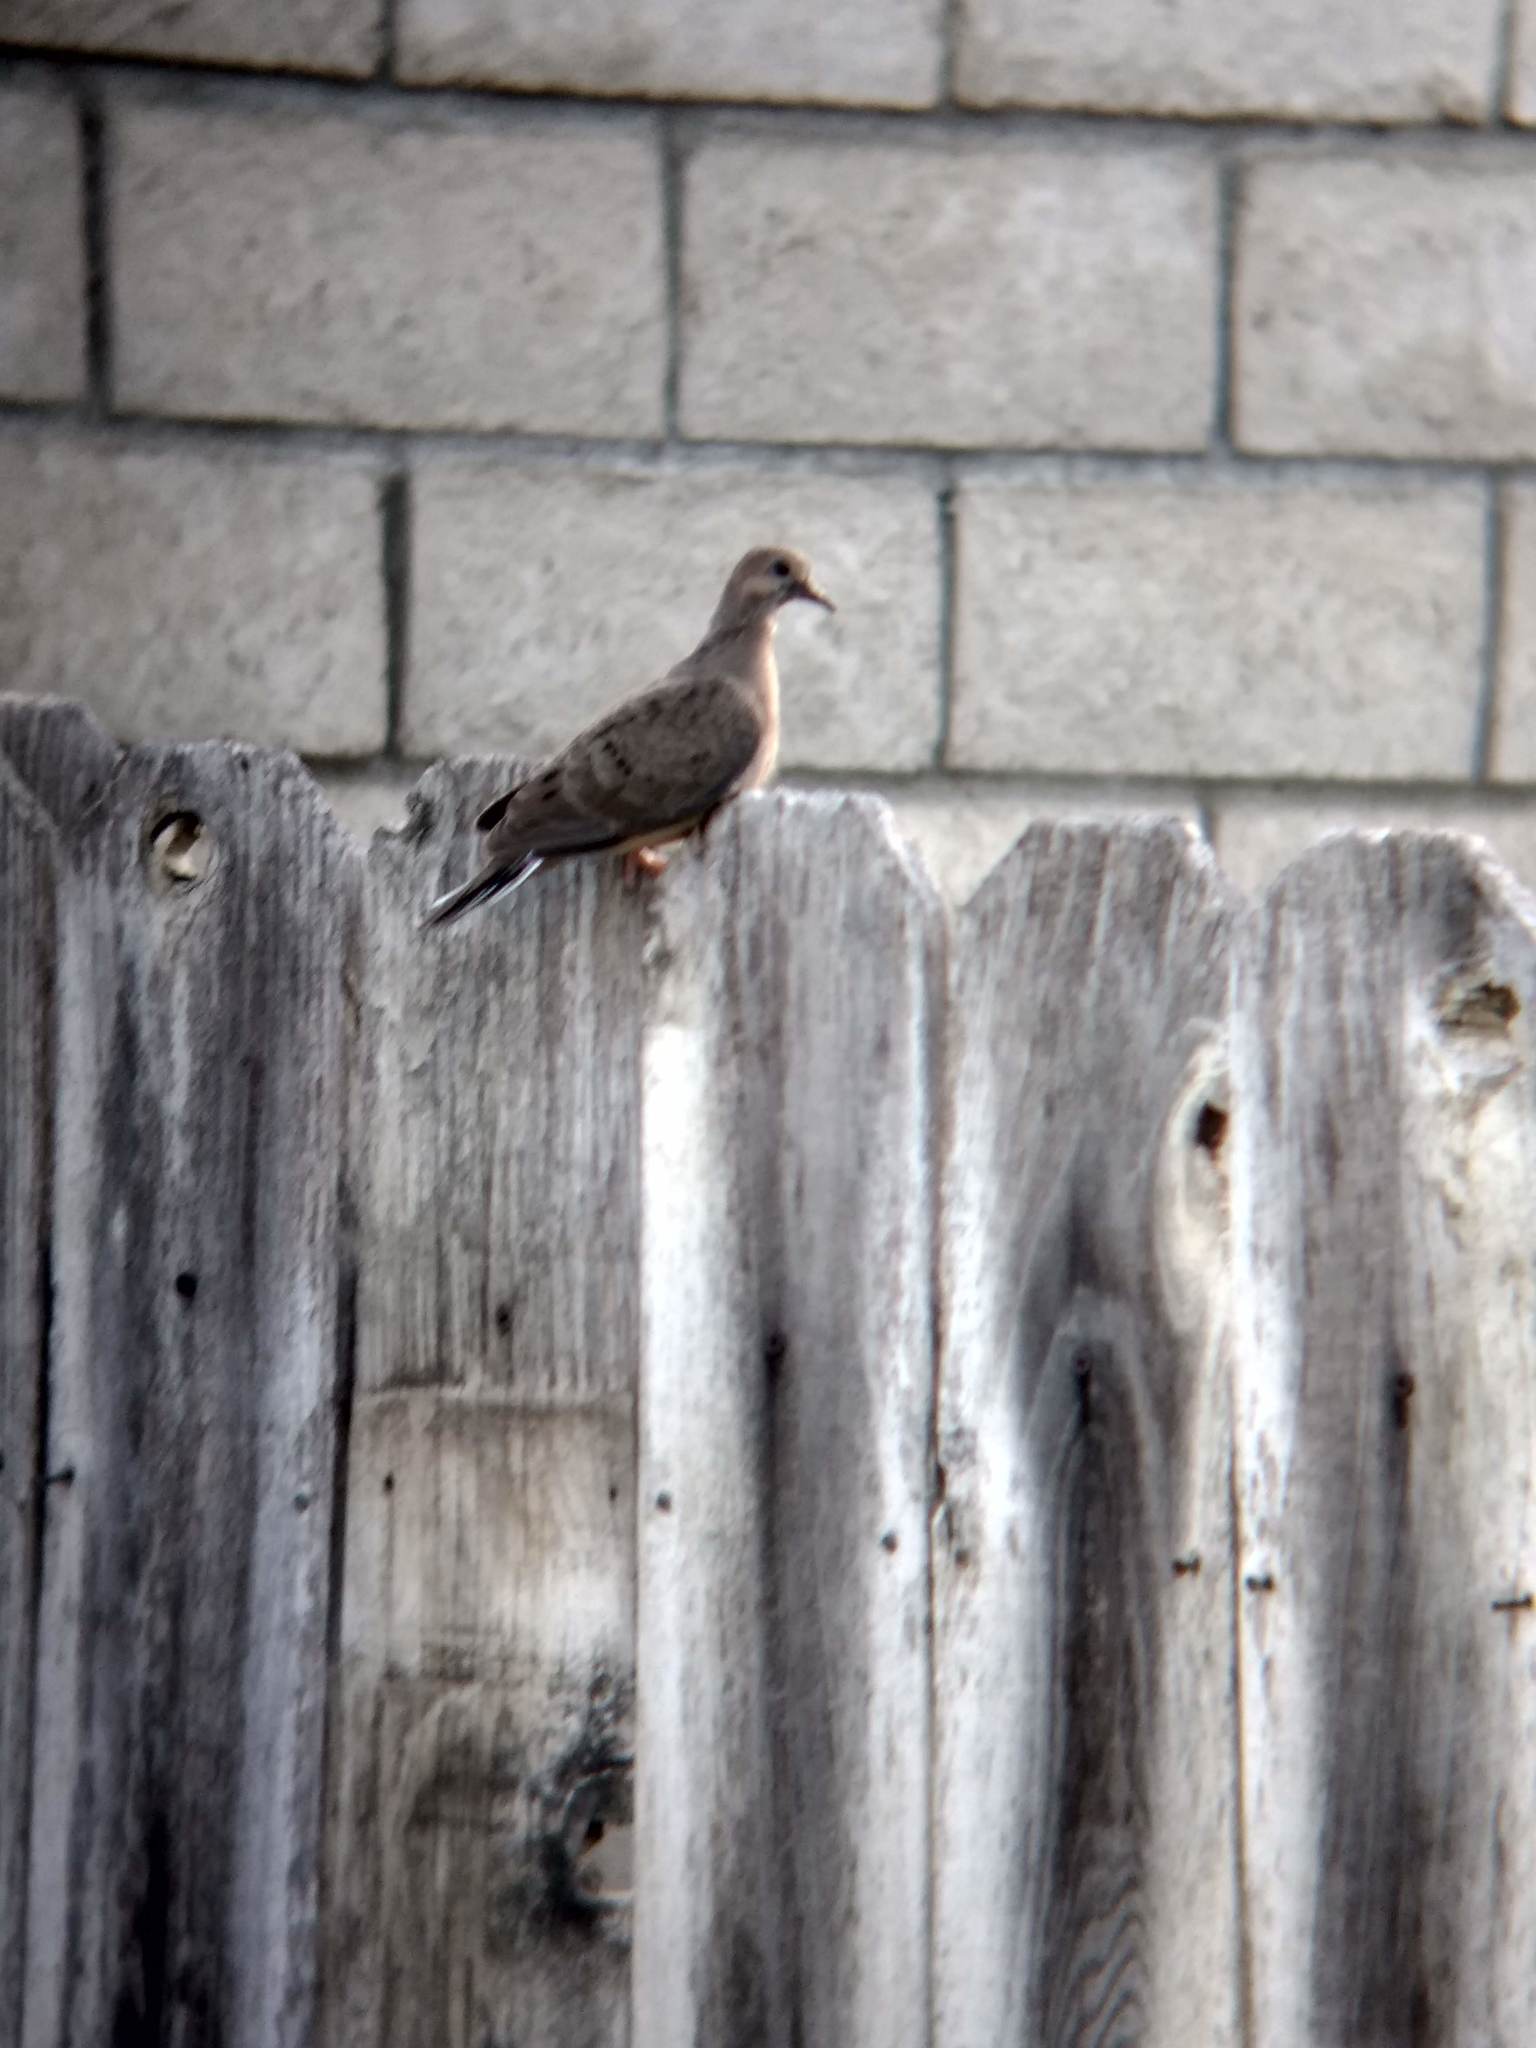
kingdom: Animalia
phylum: Chordata
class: Aves
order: Columbiformes
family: Columbidae
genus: Zenaida
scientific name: Zenaida macroura
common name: Mourning dove
